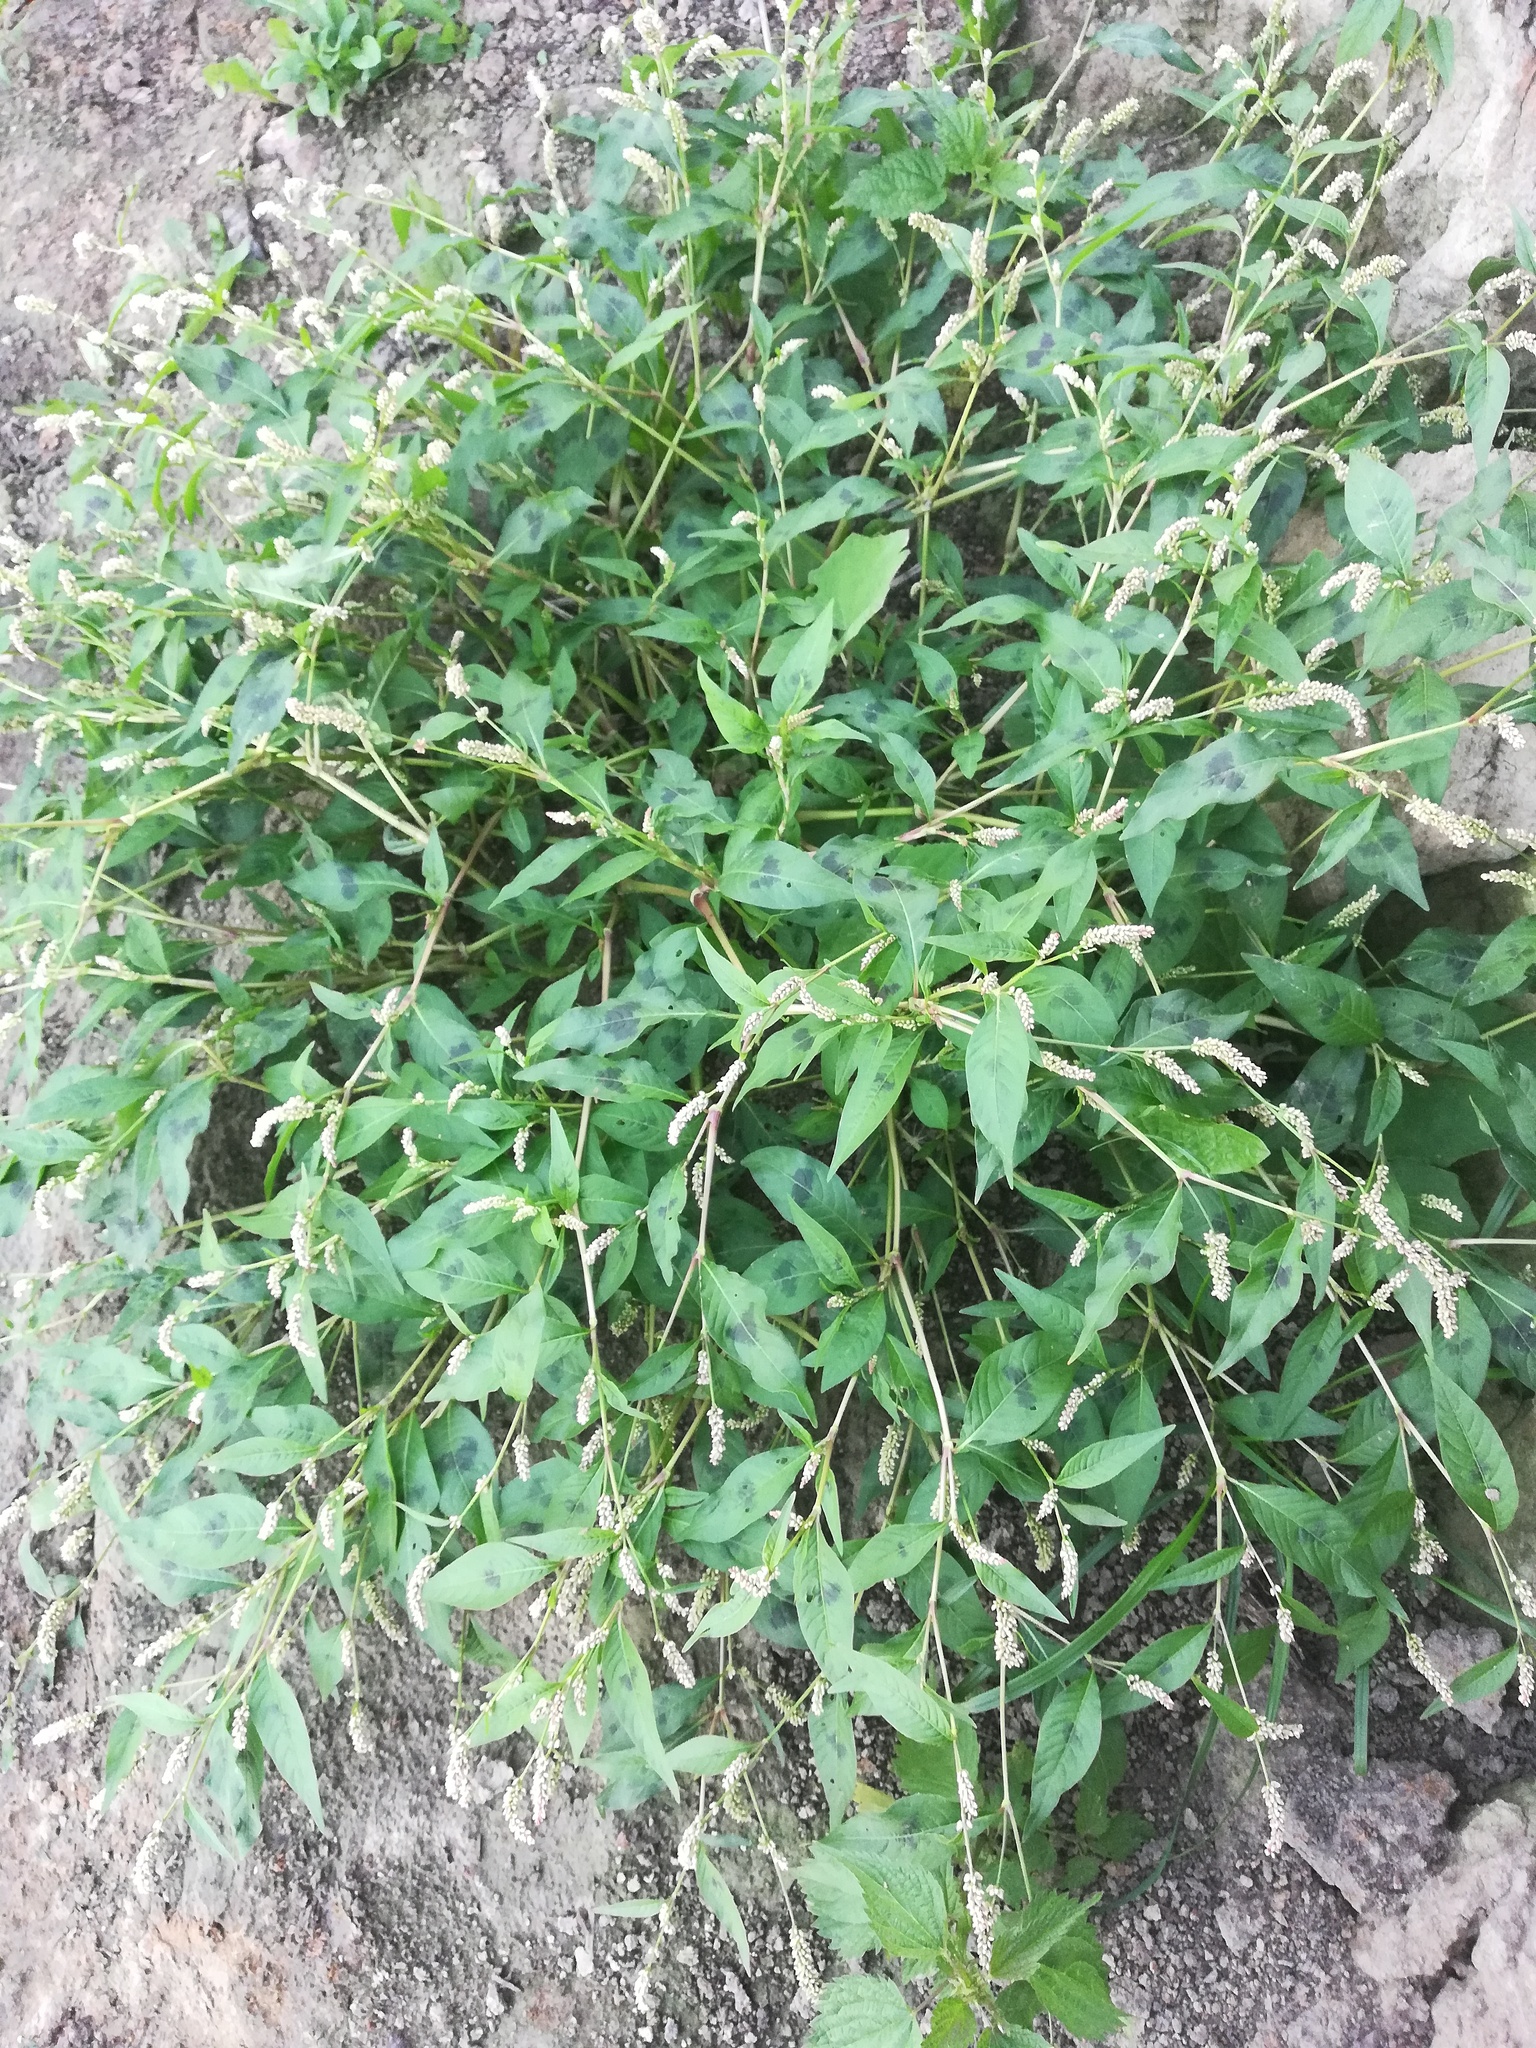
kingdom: Plantae
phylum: Tracheophyta
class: Magnoliopsida
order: Caryophyllales
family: Polygonaceae
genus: Persicaria
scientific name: Persicaria lapathifolia
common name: Curlytop knotweed
